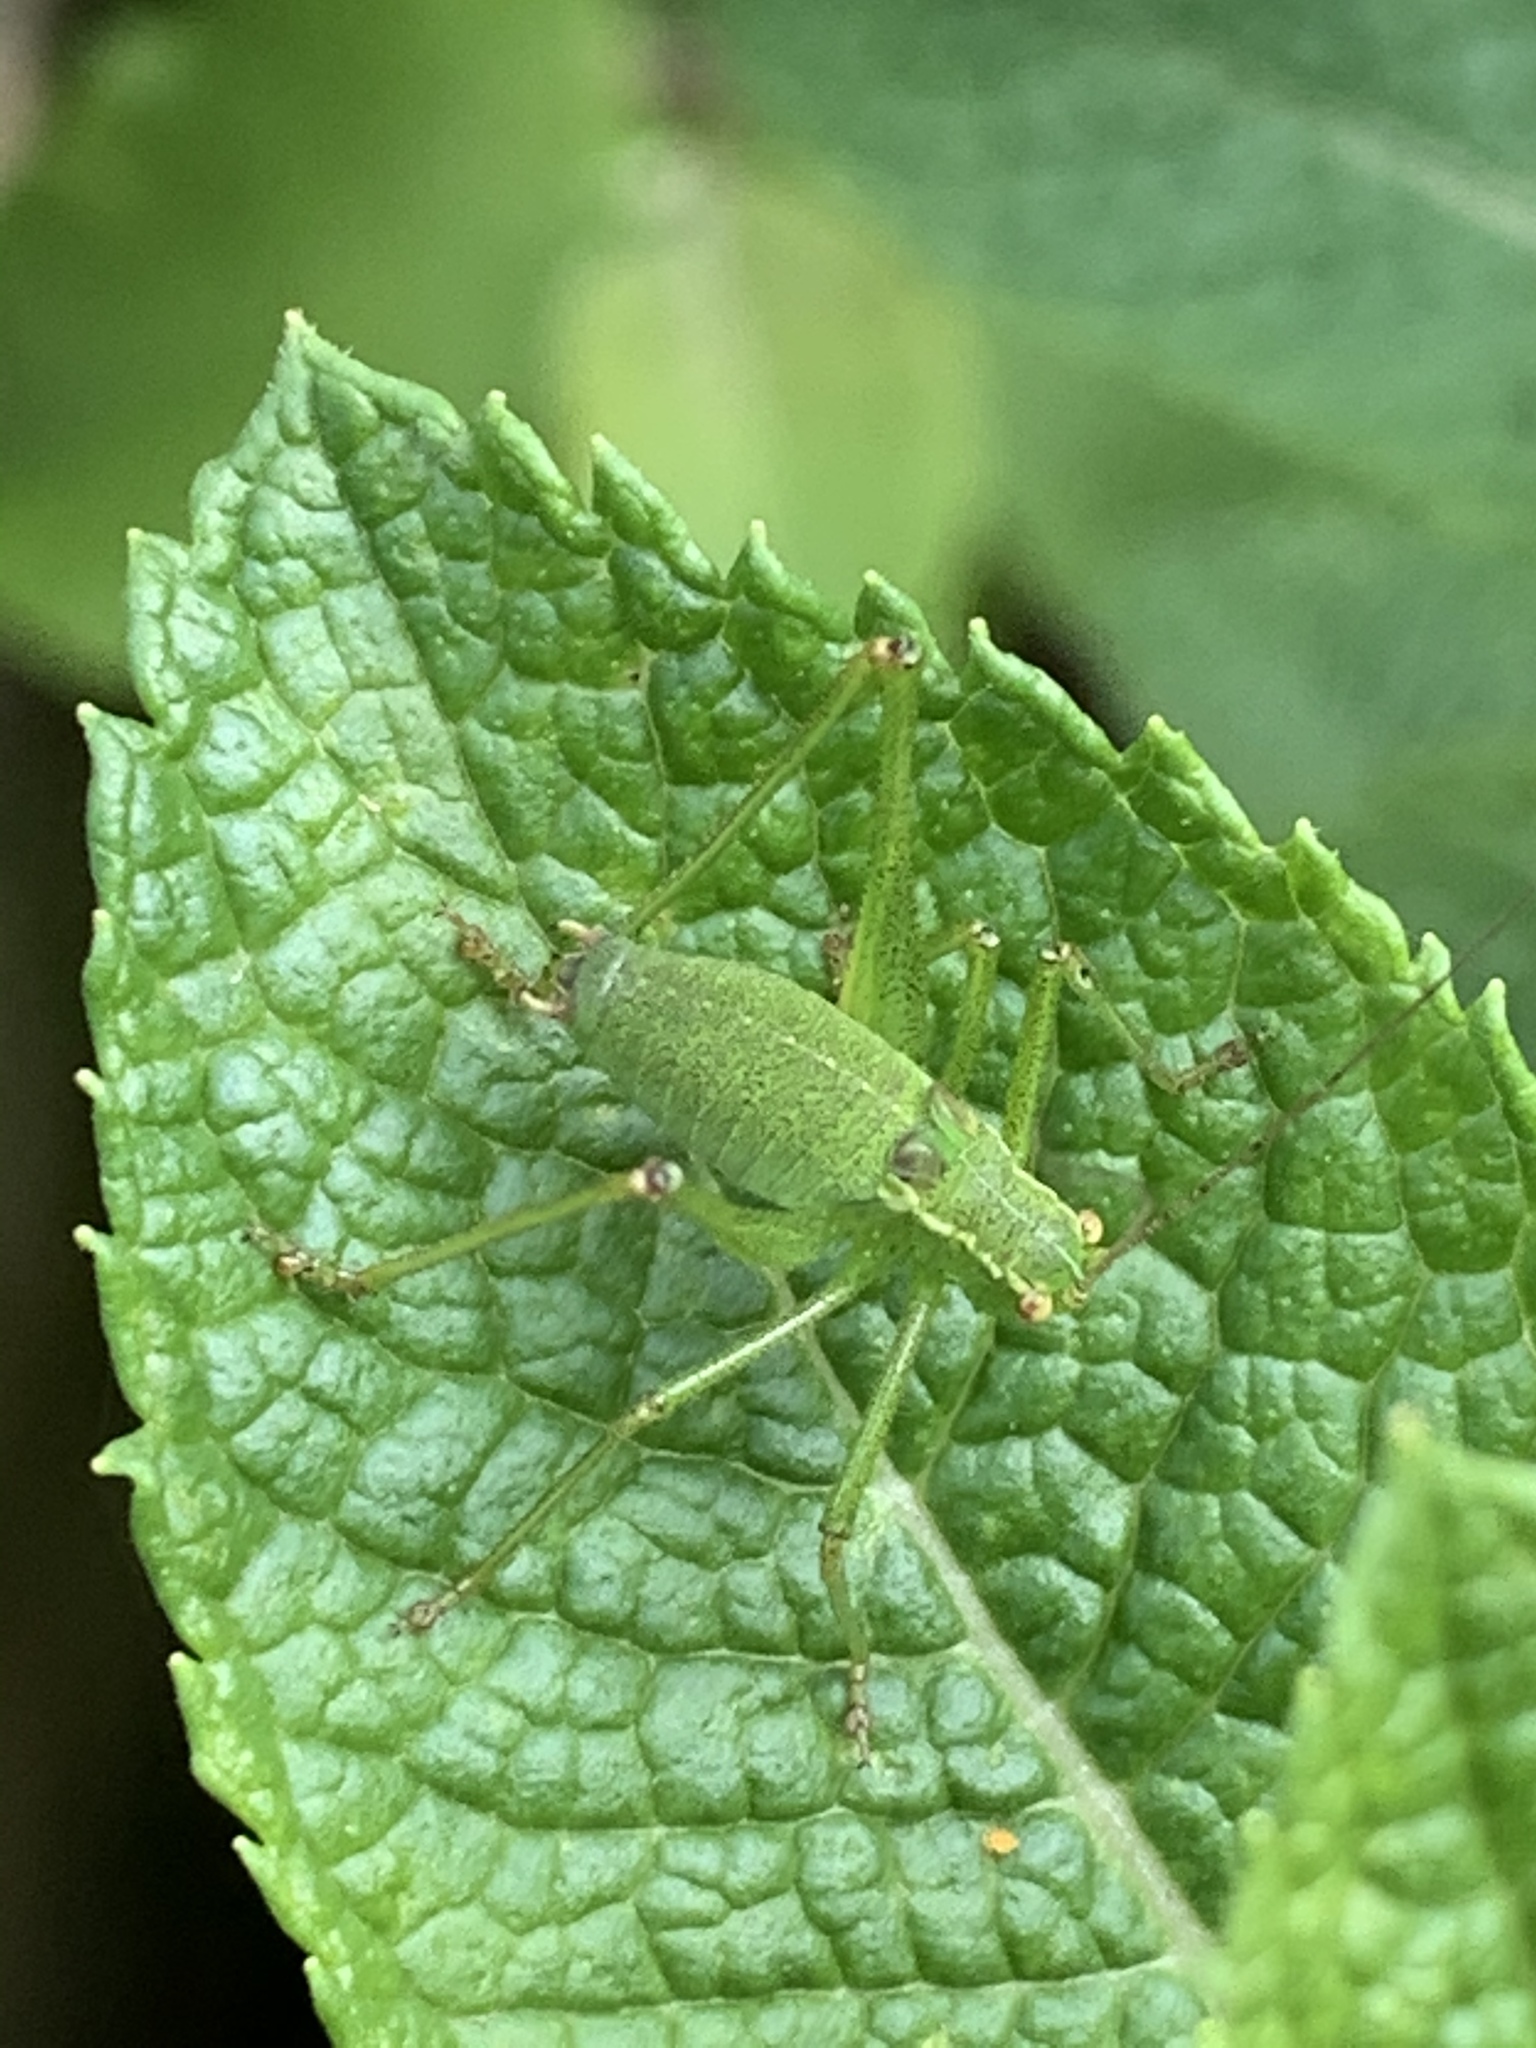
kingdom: Animalia
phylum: Arthropoda
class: Insecta
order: Orthoptera
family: Tettigoniidae
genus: Leptophyes
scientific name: Leptophyes punctatissima
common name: Speckled bush-cricket
